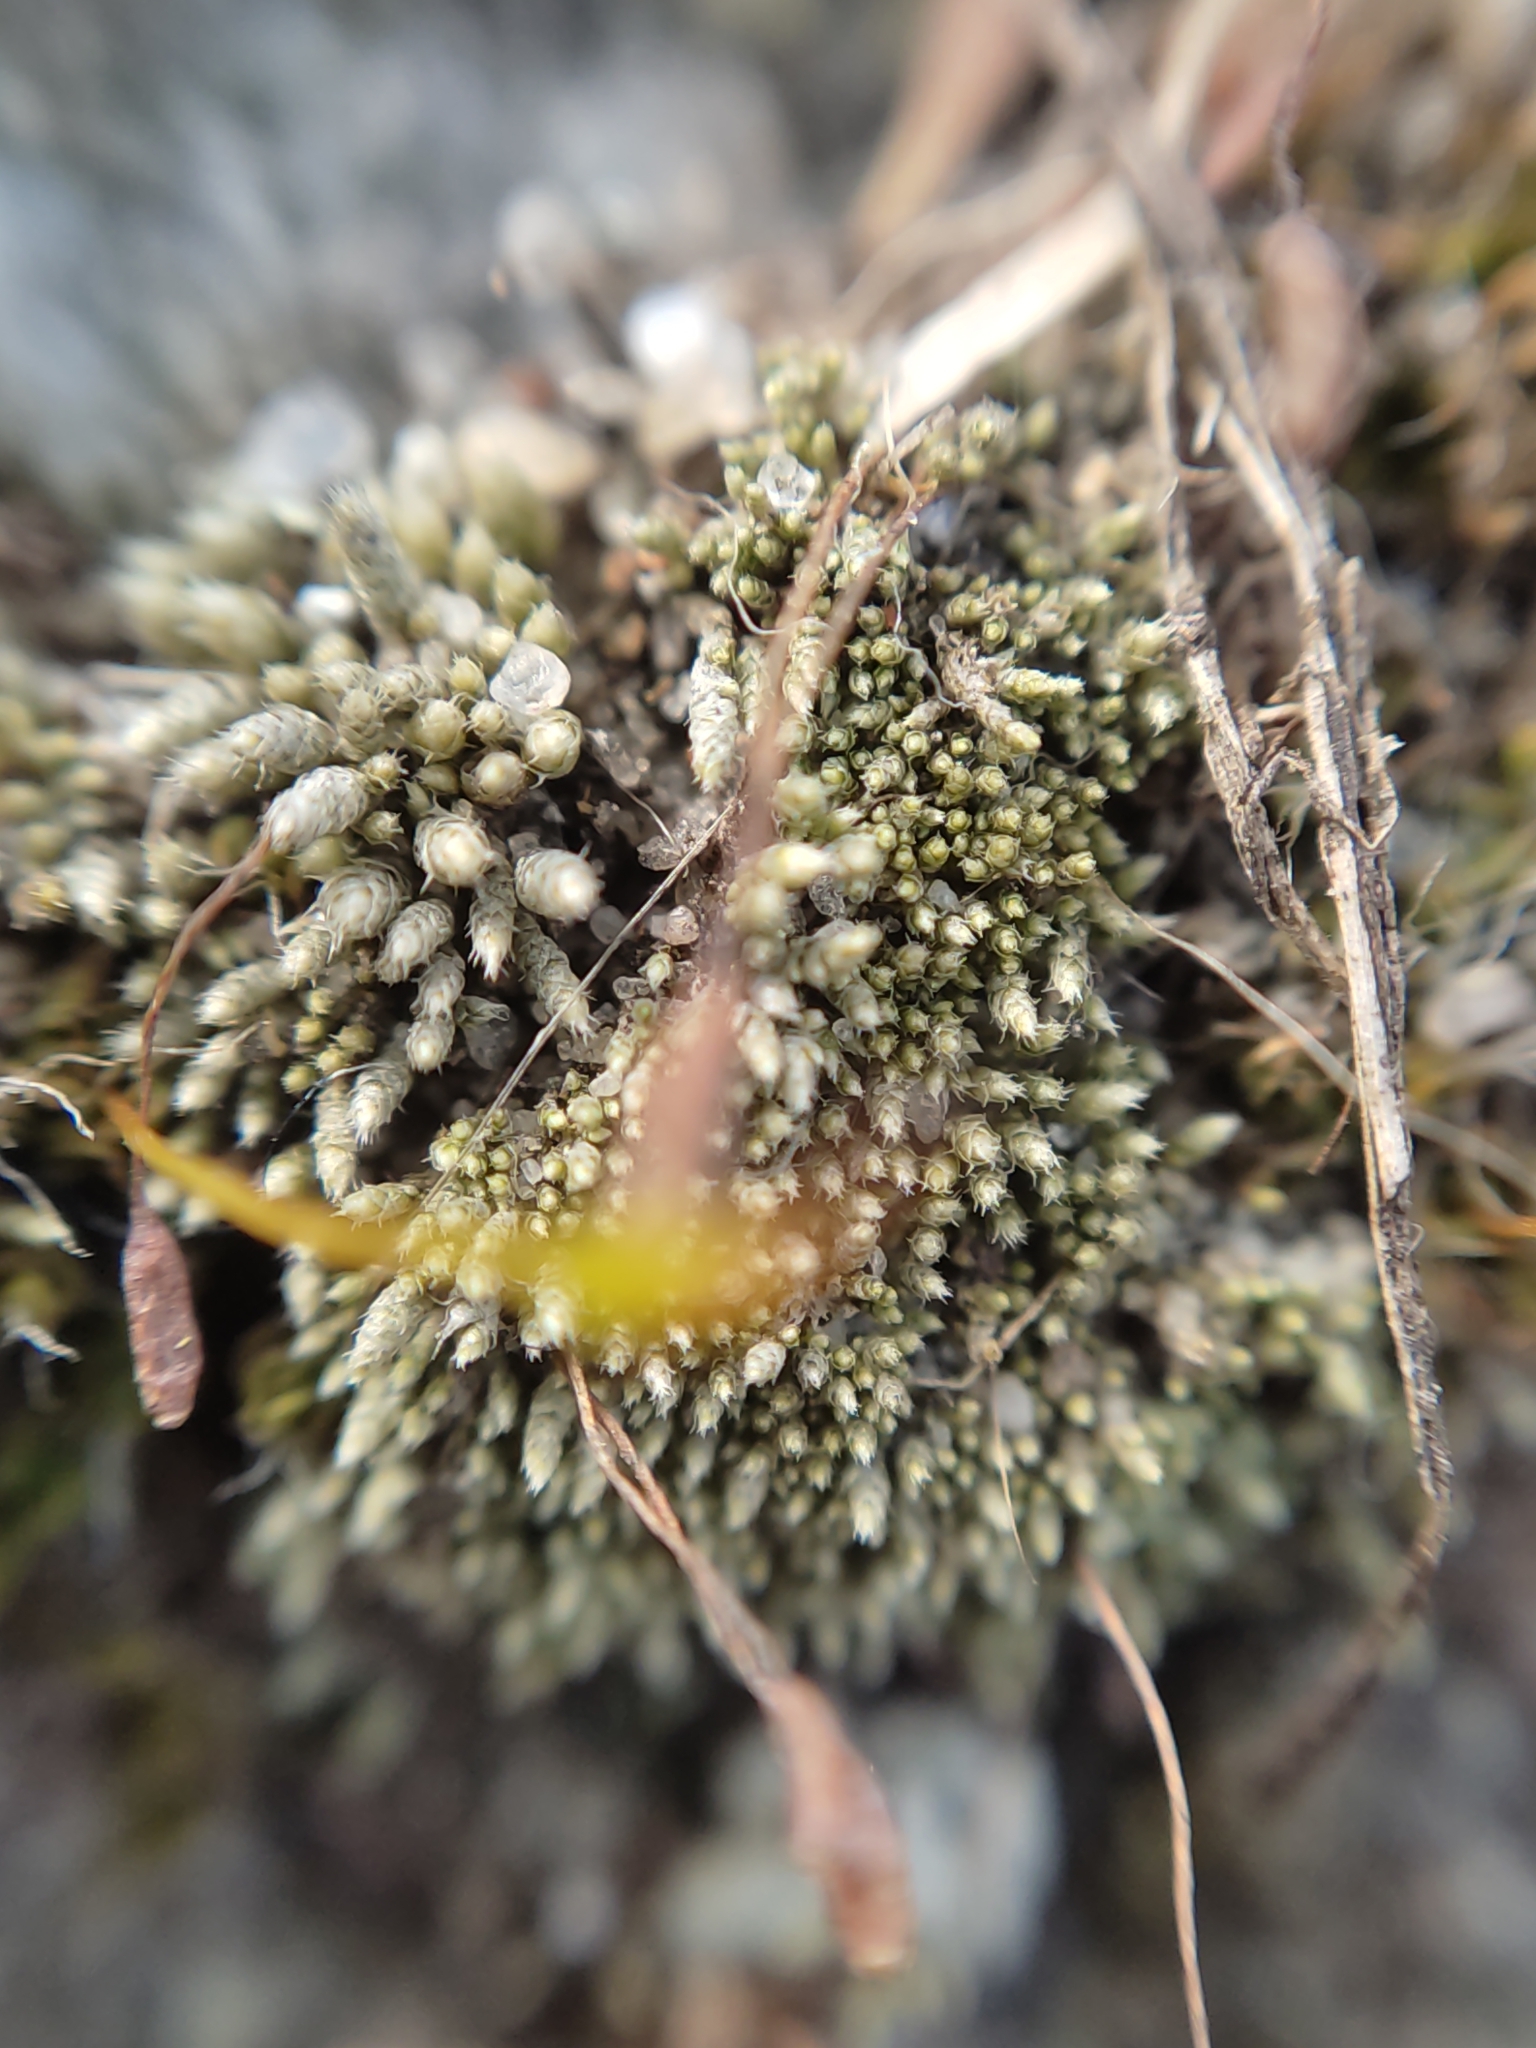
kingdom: Plantae
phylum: Bryophyta
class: Bryopsida
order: Bryales
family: Bryaceae
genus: Bryum
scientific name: Bryum argenteum
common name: Silver-moss
